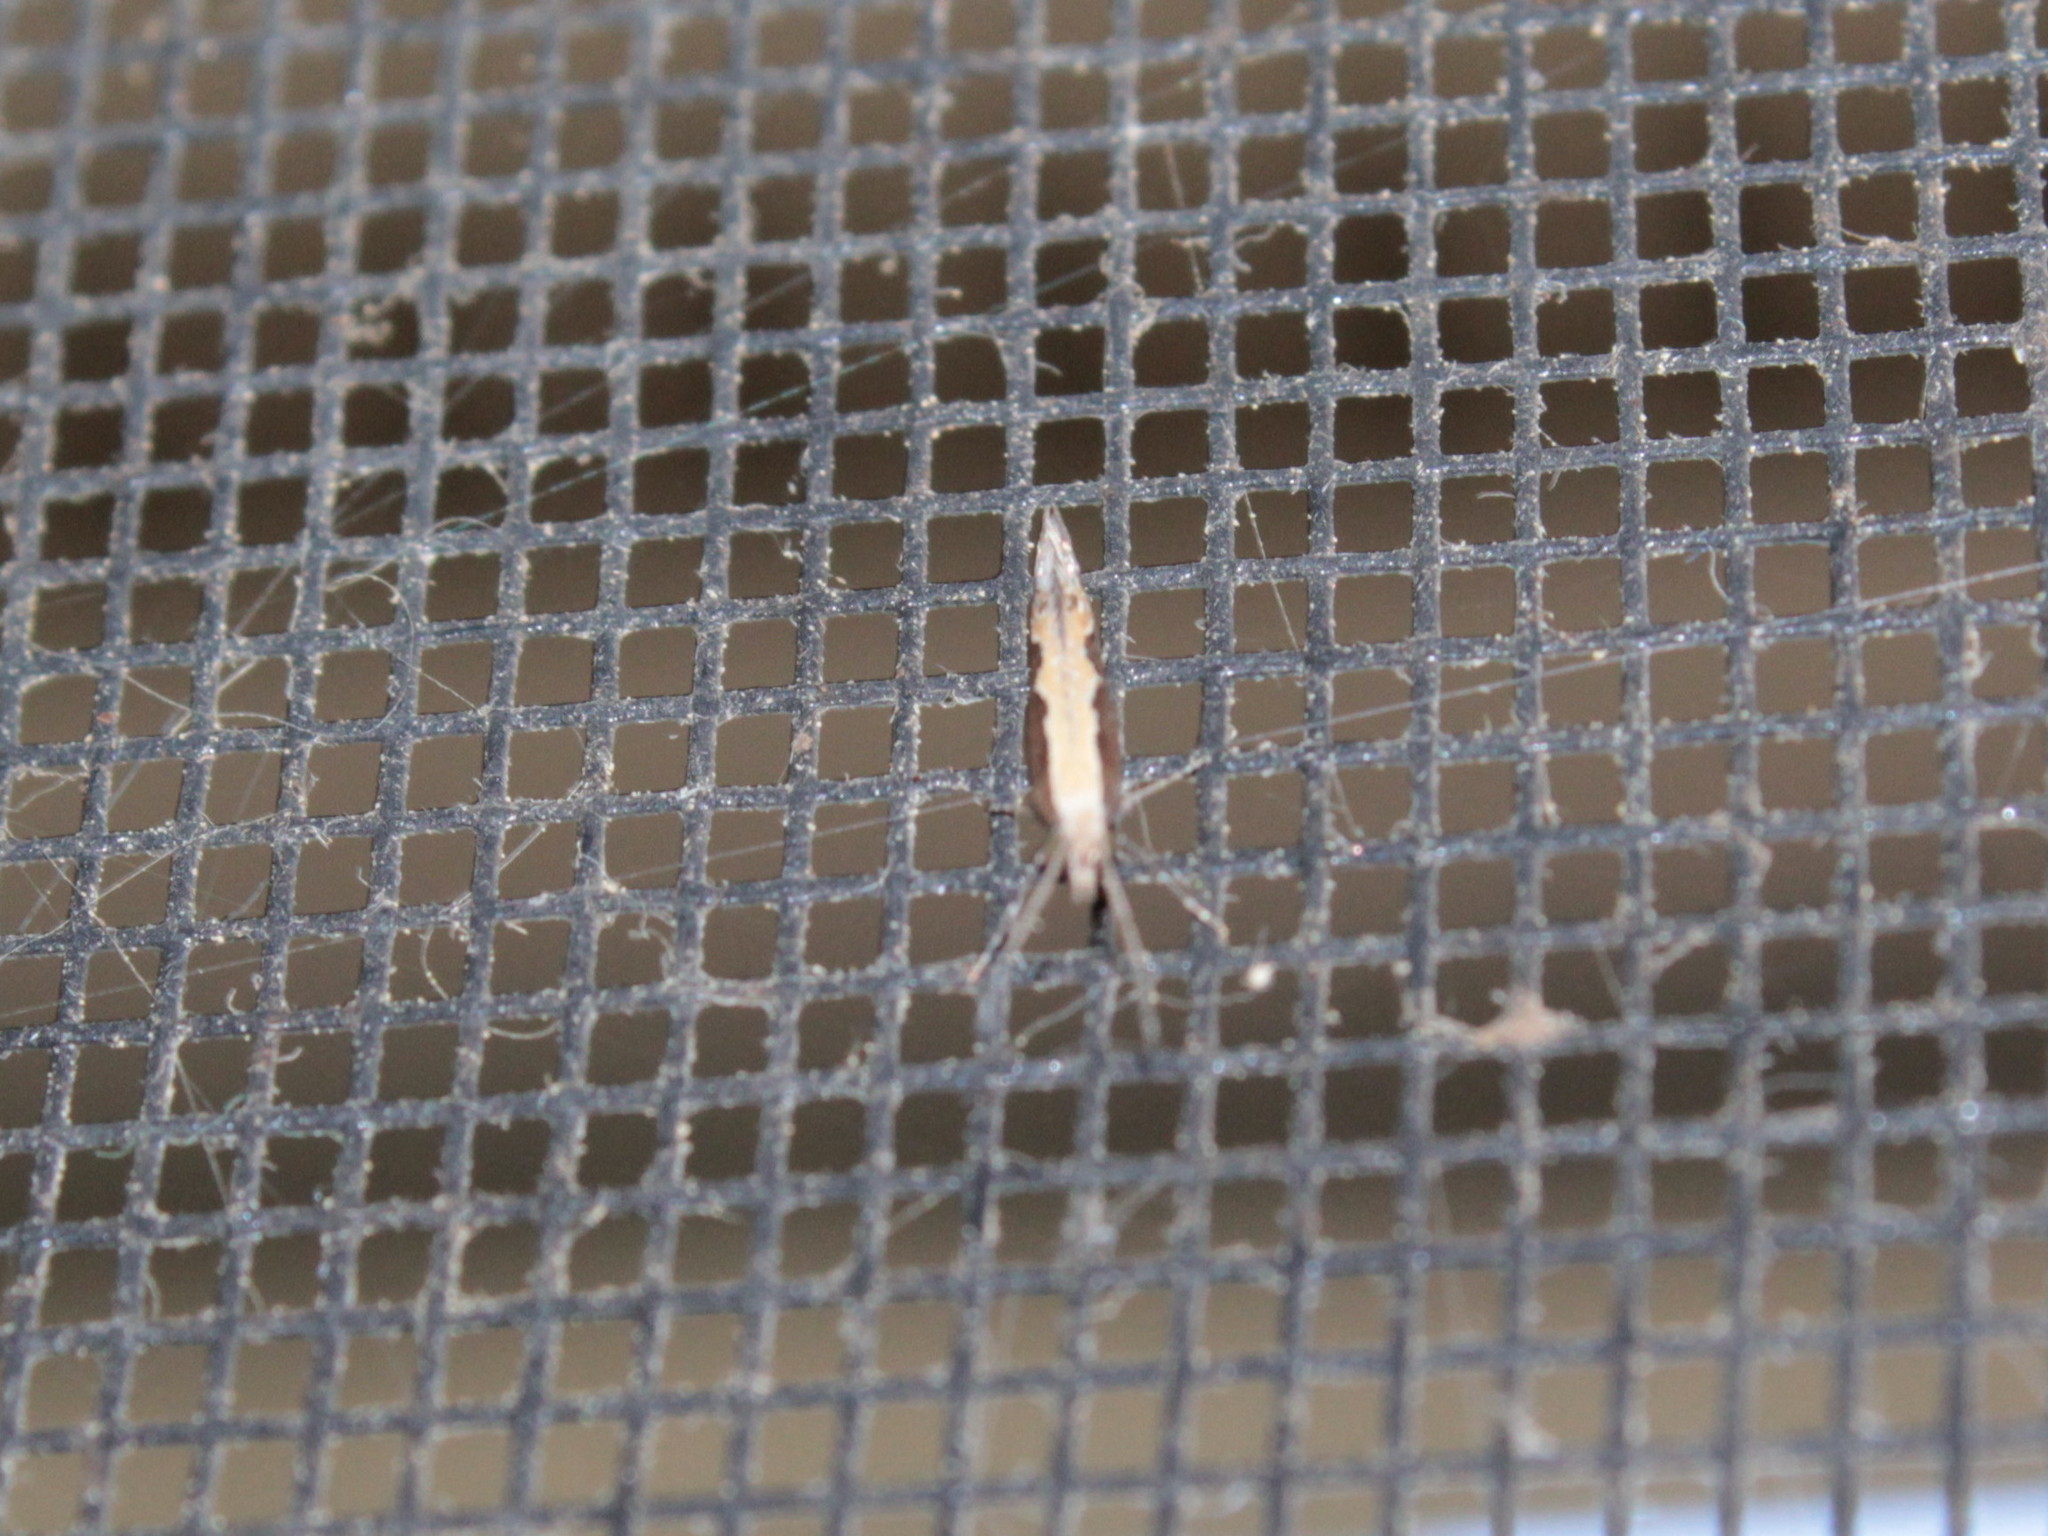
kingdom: Animalia
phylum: Arthropoda
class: Insecta
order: Lepidoptera
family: Plutellidae
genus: Plutella
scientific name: Plutella xylostella
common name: Diamond-back moth
